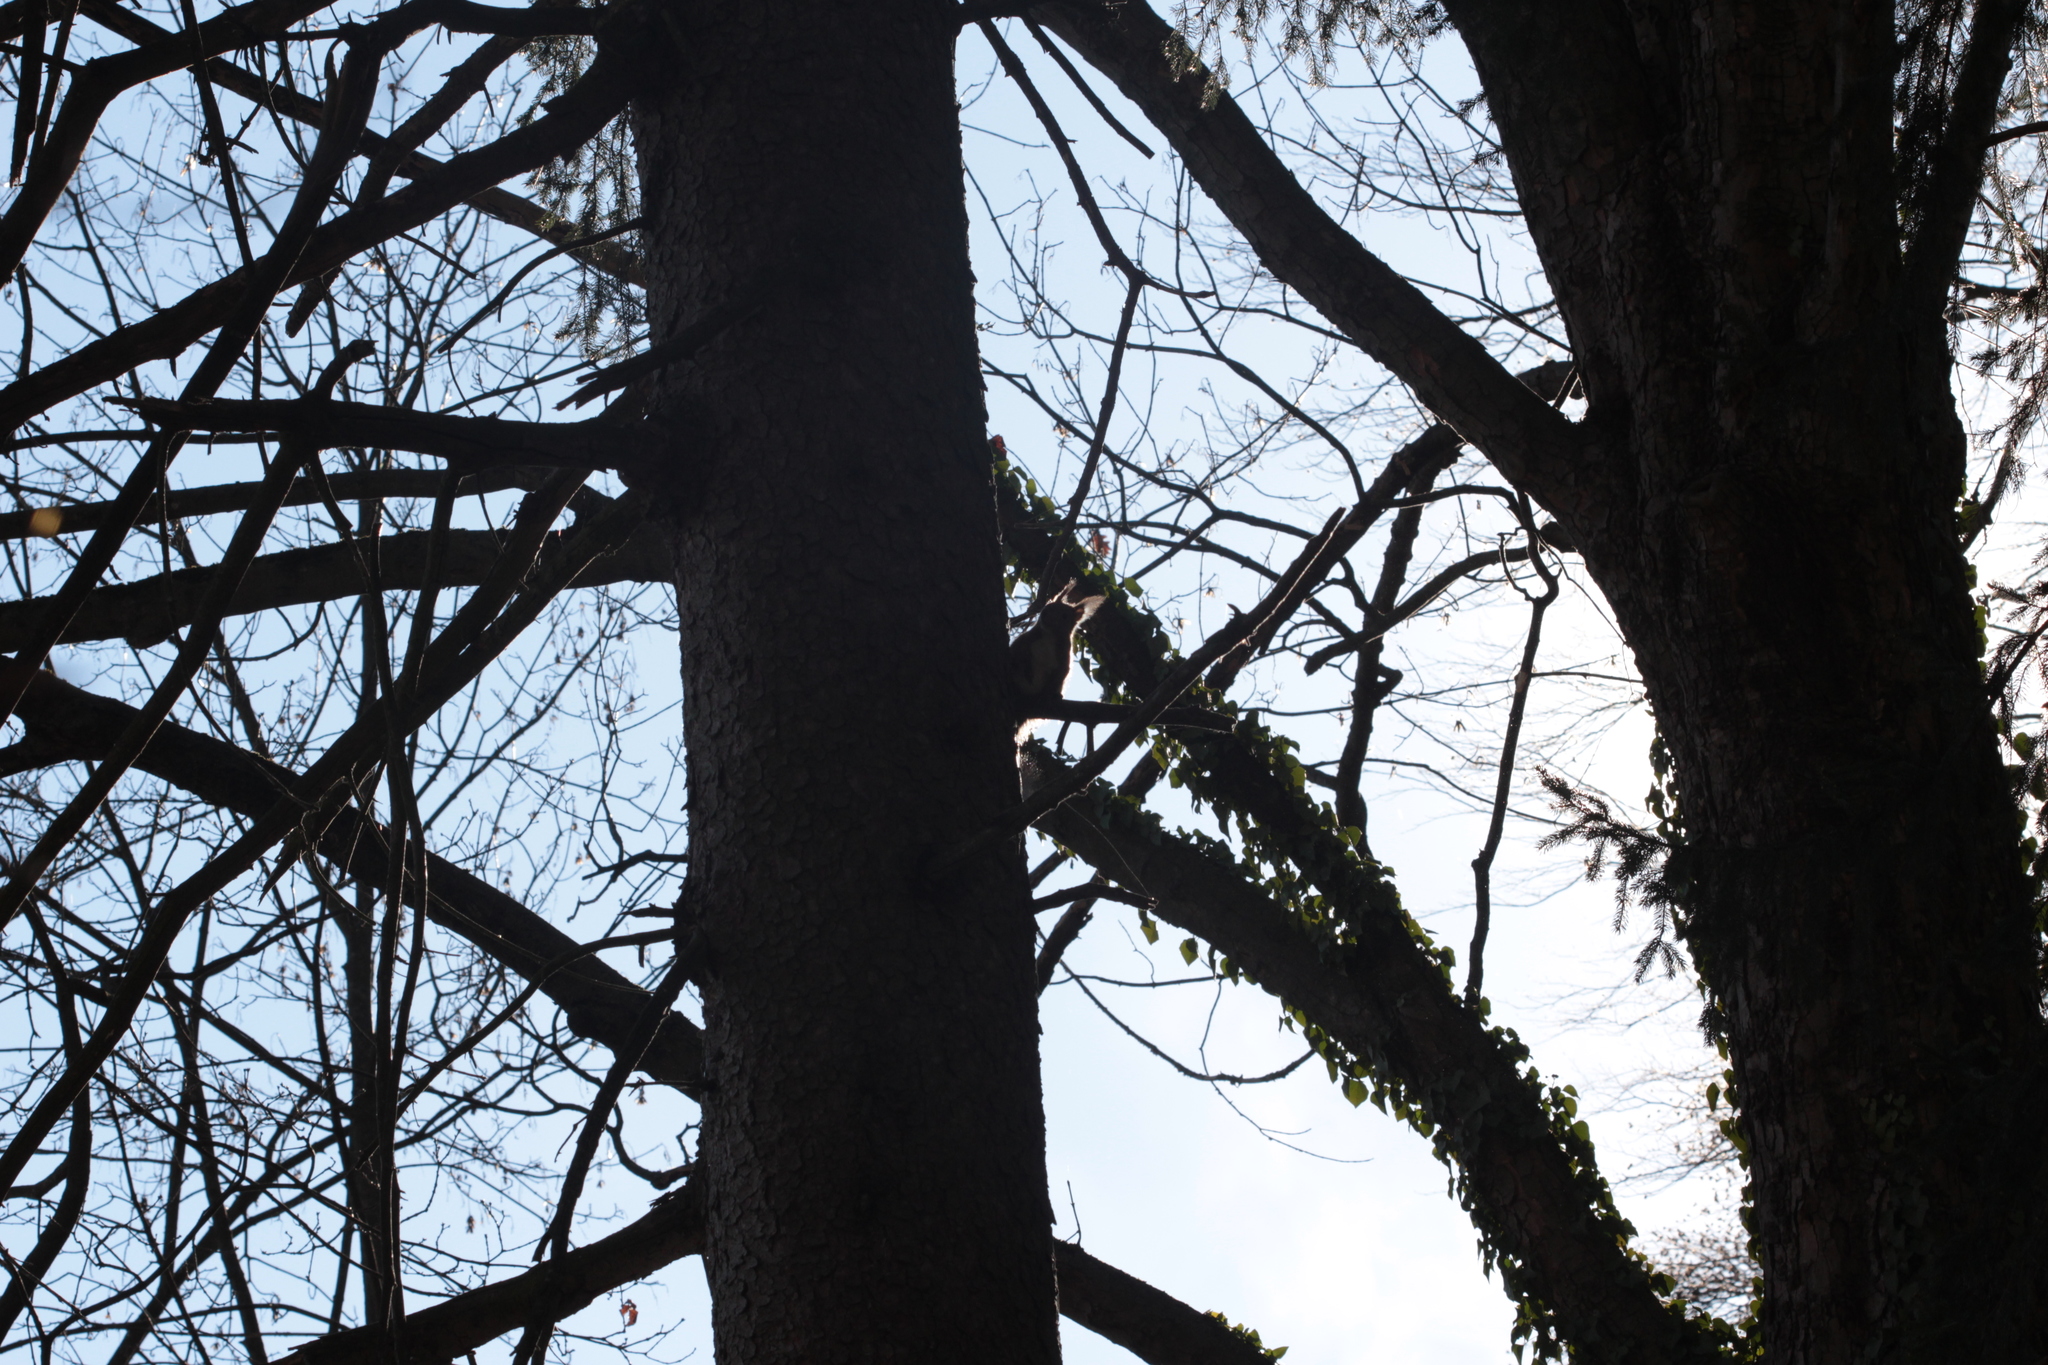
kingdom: Animalia
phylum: Chordata
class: Mammalia
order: Rodentia
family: Sciuridae
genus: Sciurus
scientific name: Sciurus vulgaris
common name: Eurasian red squirrel
